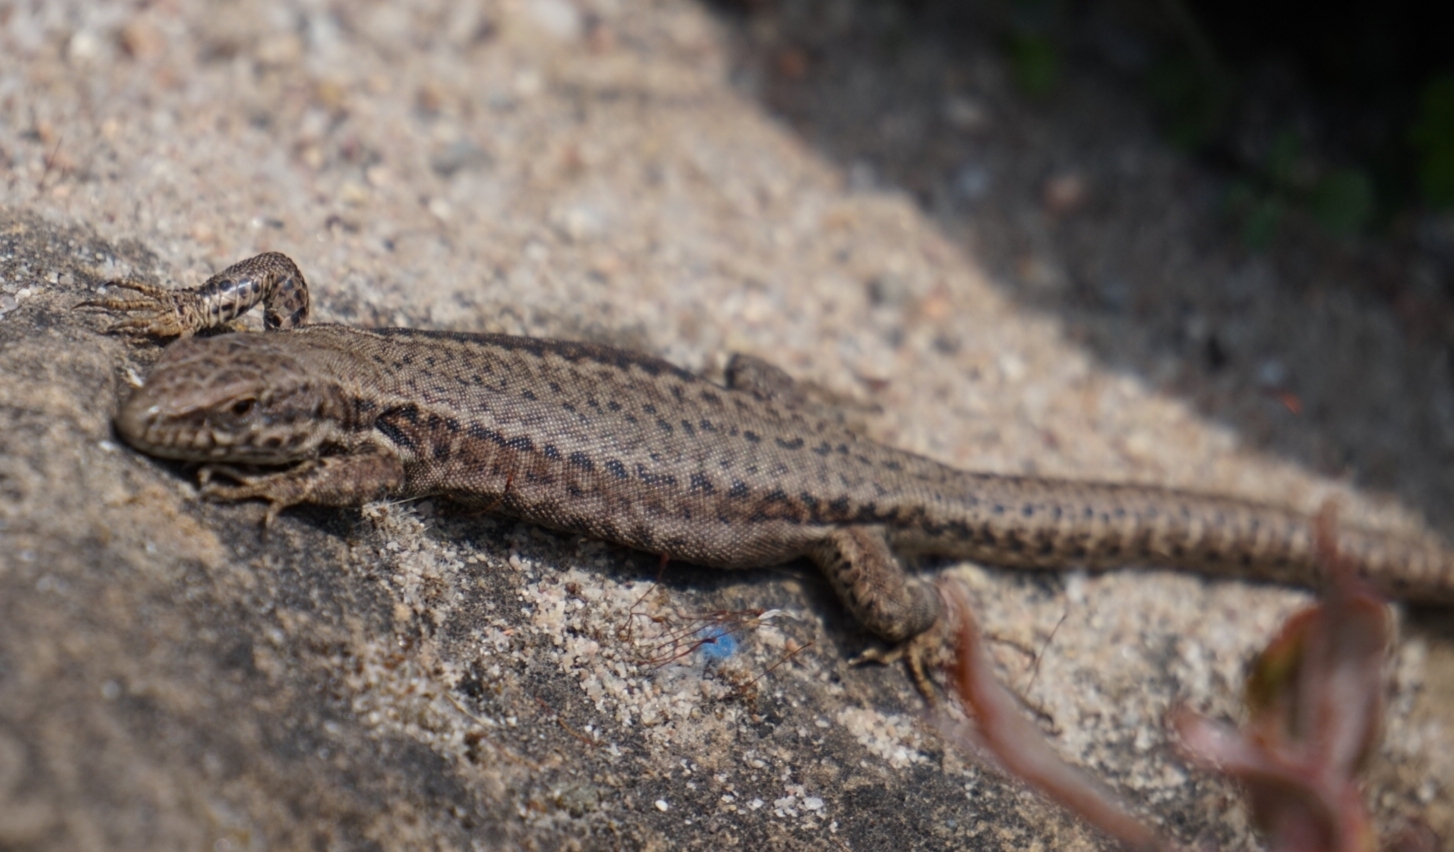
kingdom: Animalia
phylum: Chordata
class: Squamata
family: Lacertidae
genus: Podarcis
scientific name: Podarcis muralis
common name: Common wall lizard
